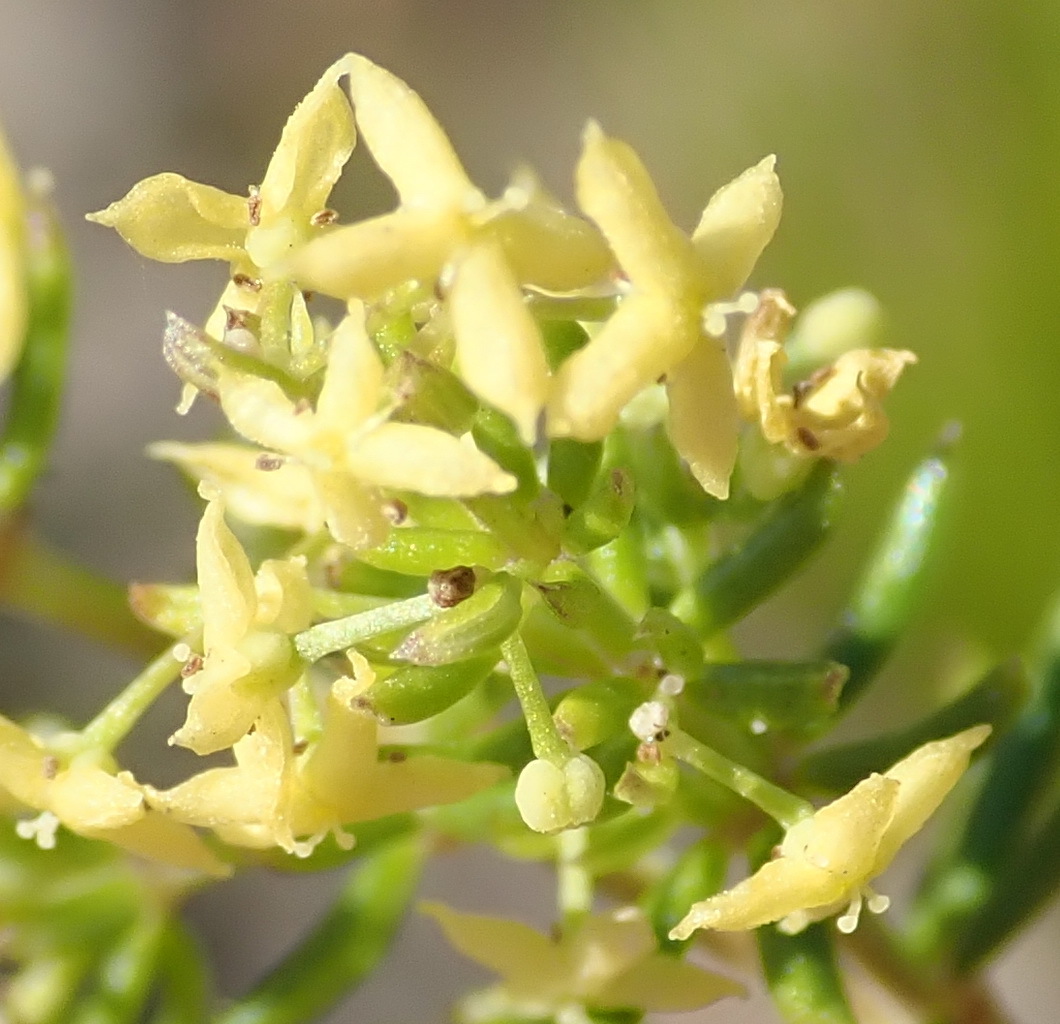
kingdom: Plantae
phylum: Tracheophyta
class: Magnoliopsida
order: Gentianales
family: Rubiaceae
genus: Galium
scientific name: Galium capense
